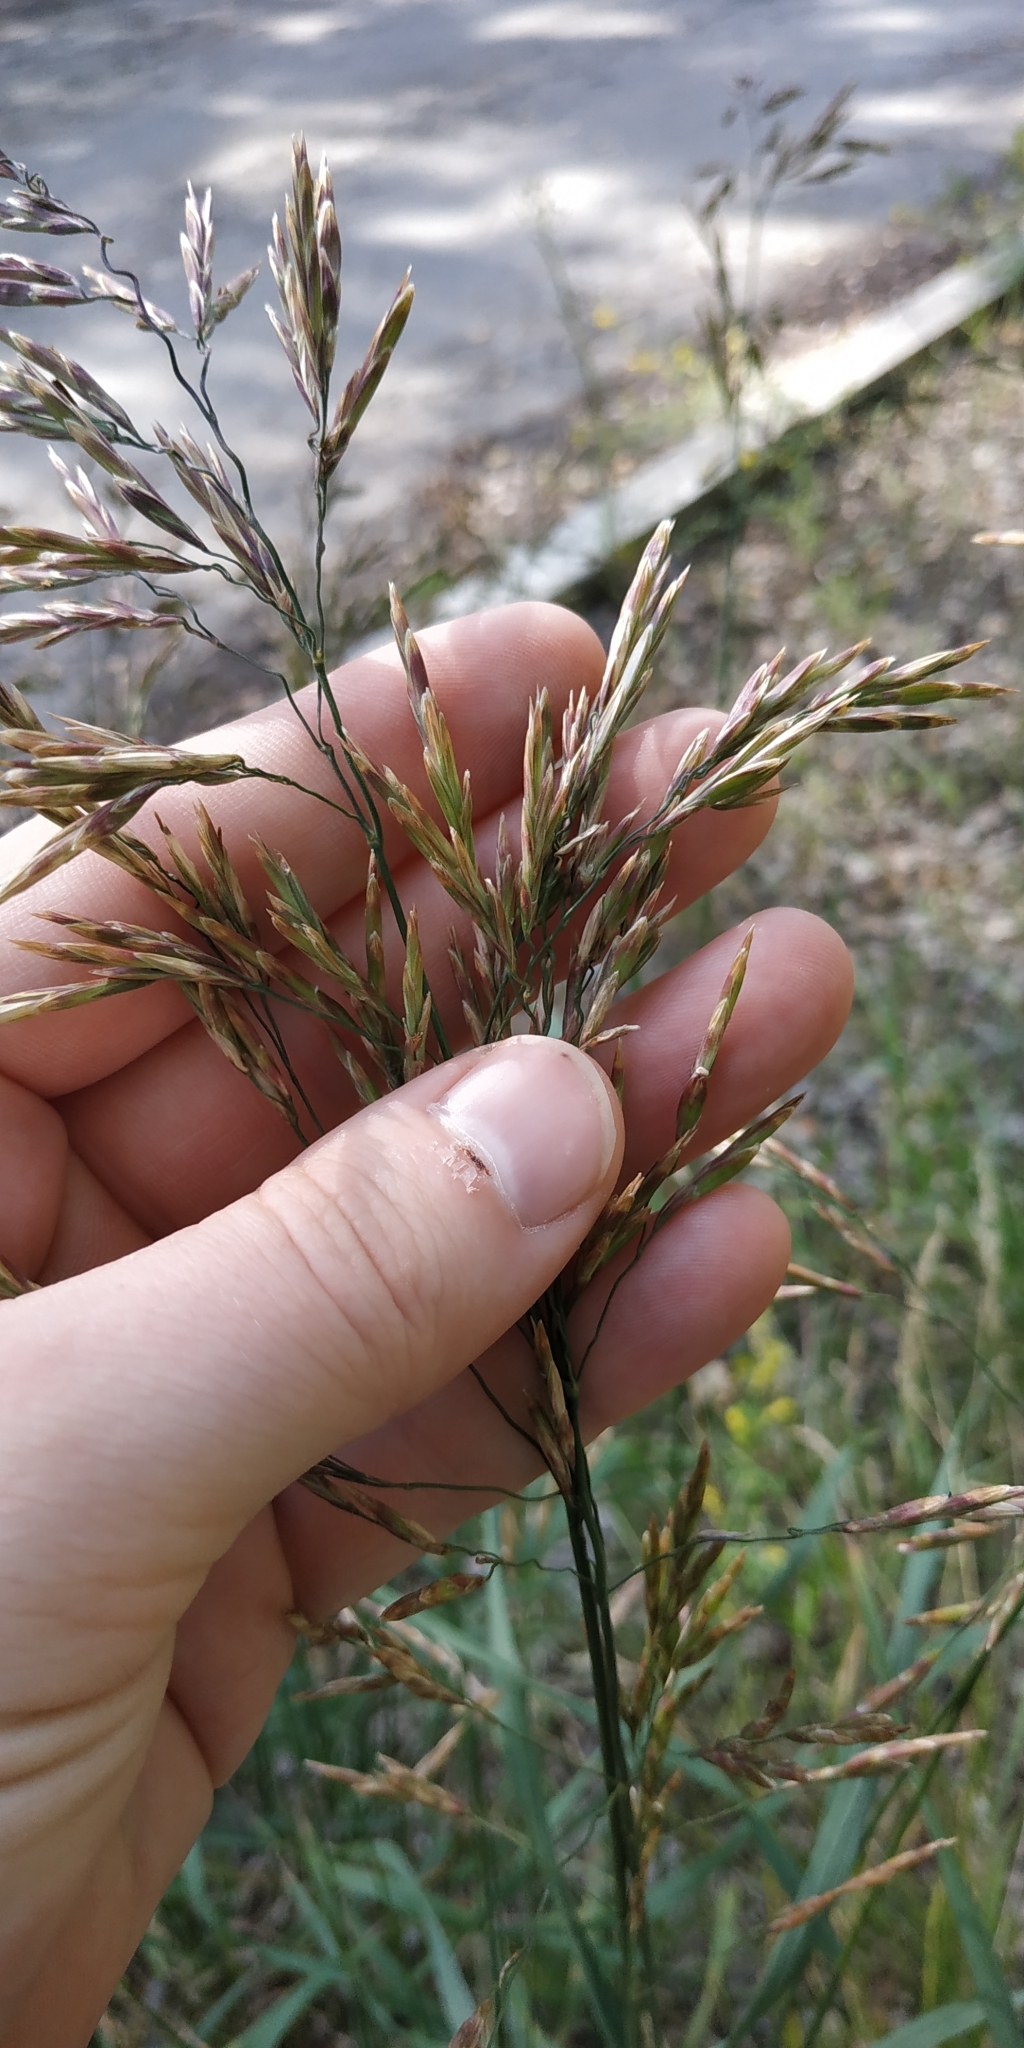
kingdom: Plantae
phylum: Tracheophyta
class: Liliopsida
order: Poales
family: Poaceae
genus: Bromus
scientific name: Bromus inermis
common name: Smooth brome
